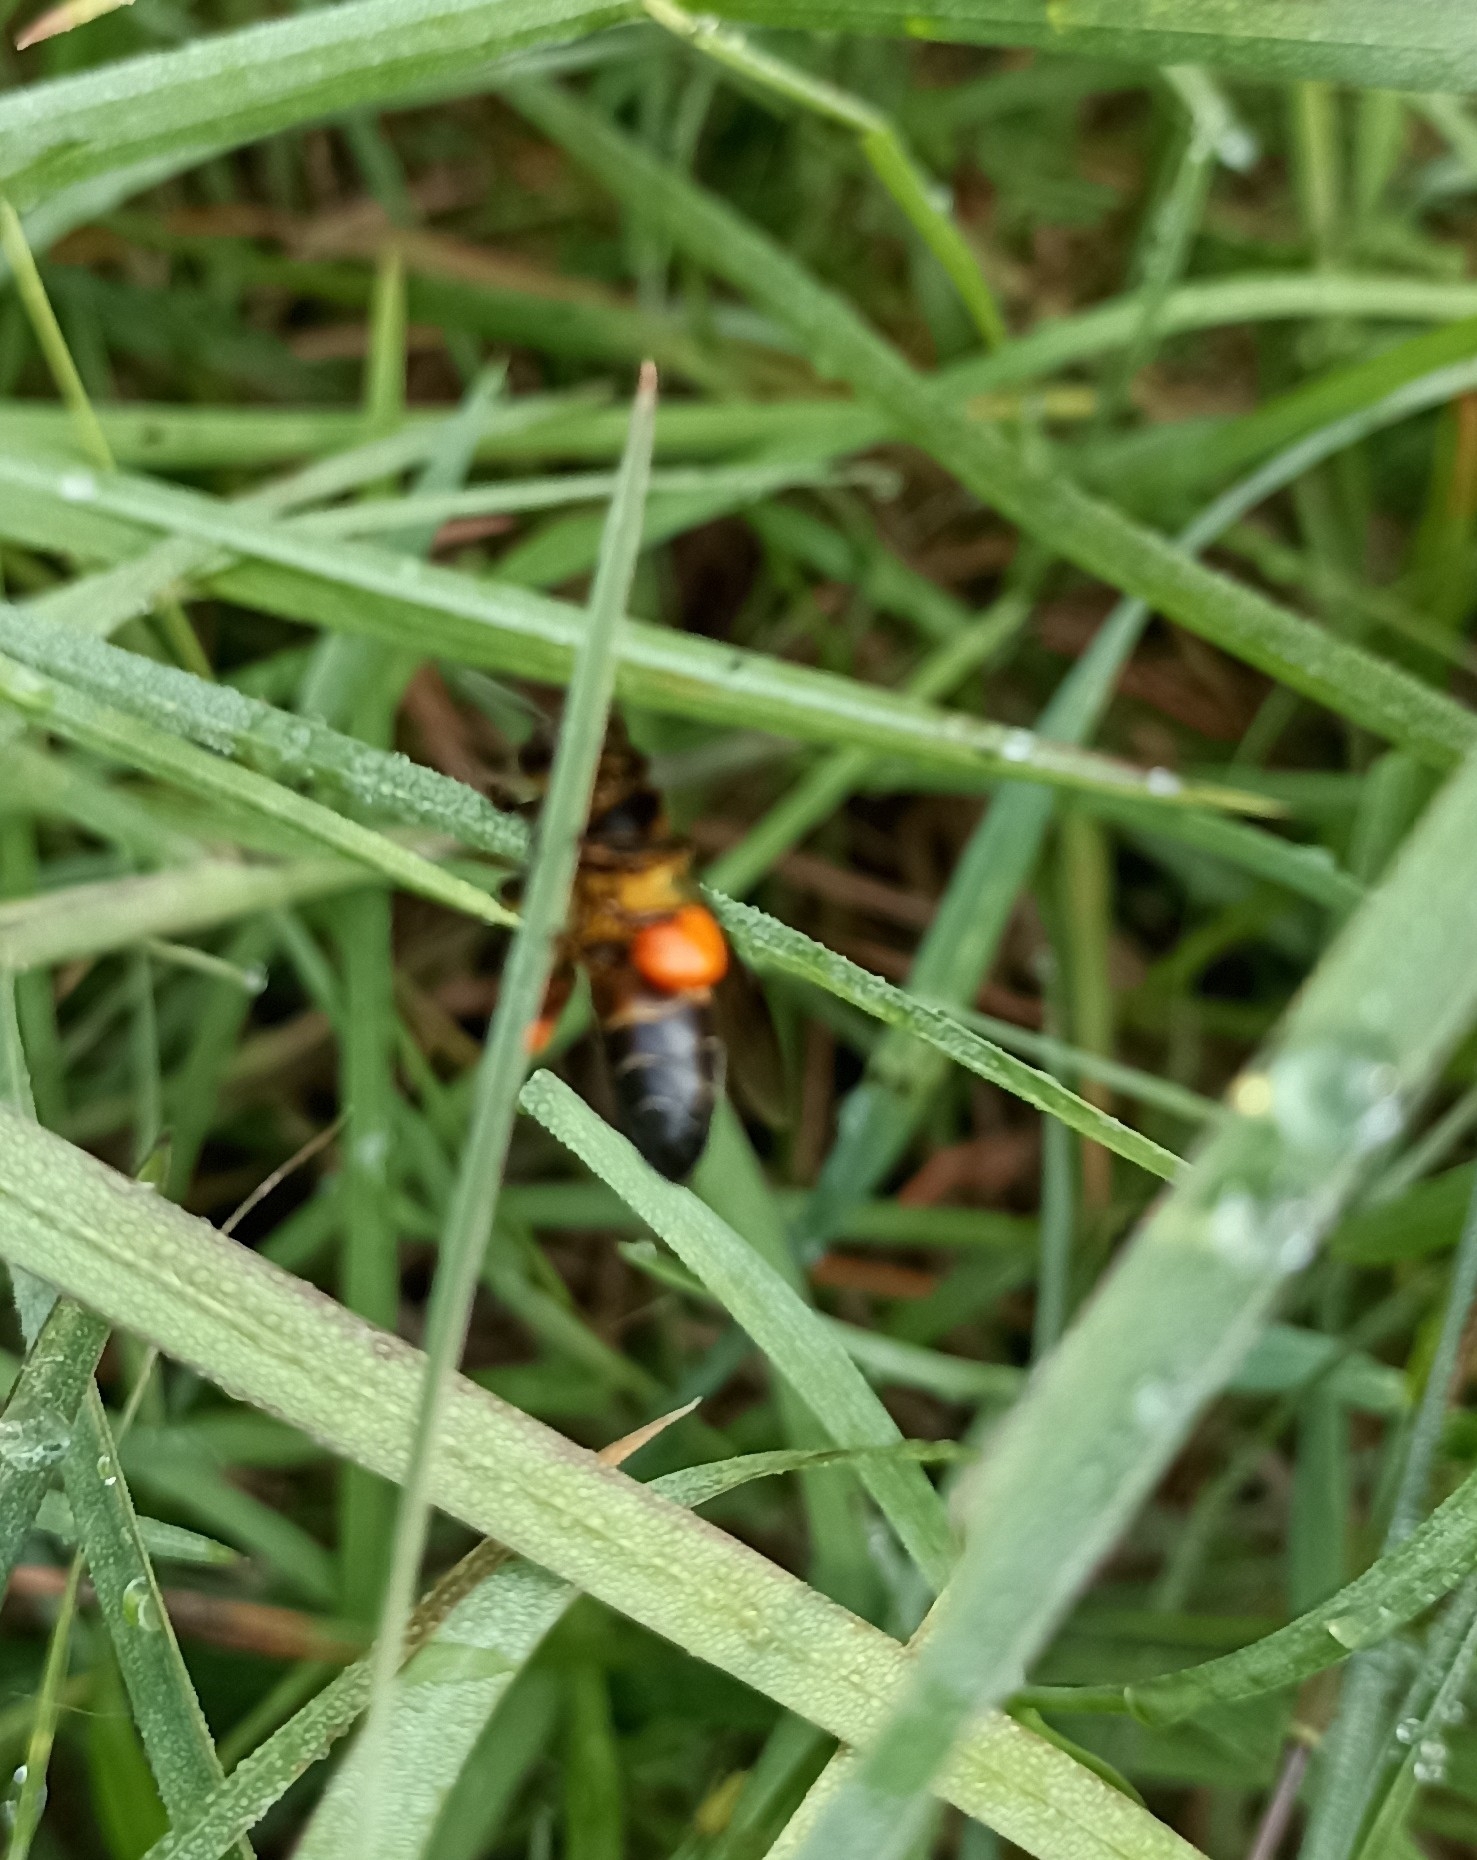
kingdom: Animalia
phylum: Arthropoda
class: Insecta
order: Hymenoptera
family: Apidae
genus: Apis
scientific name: Apis dorsata
